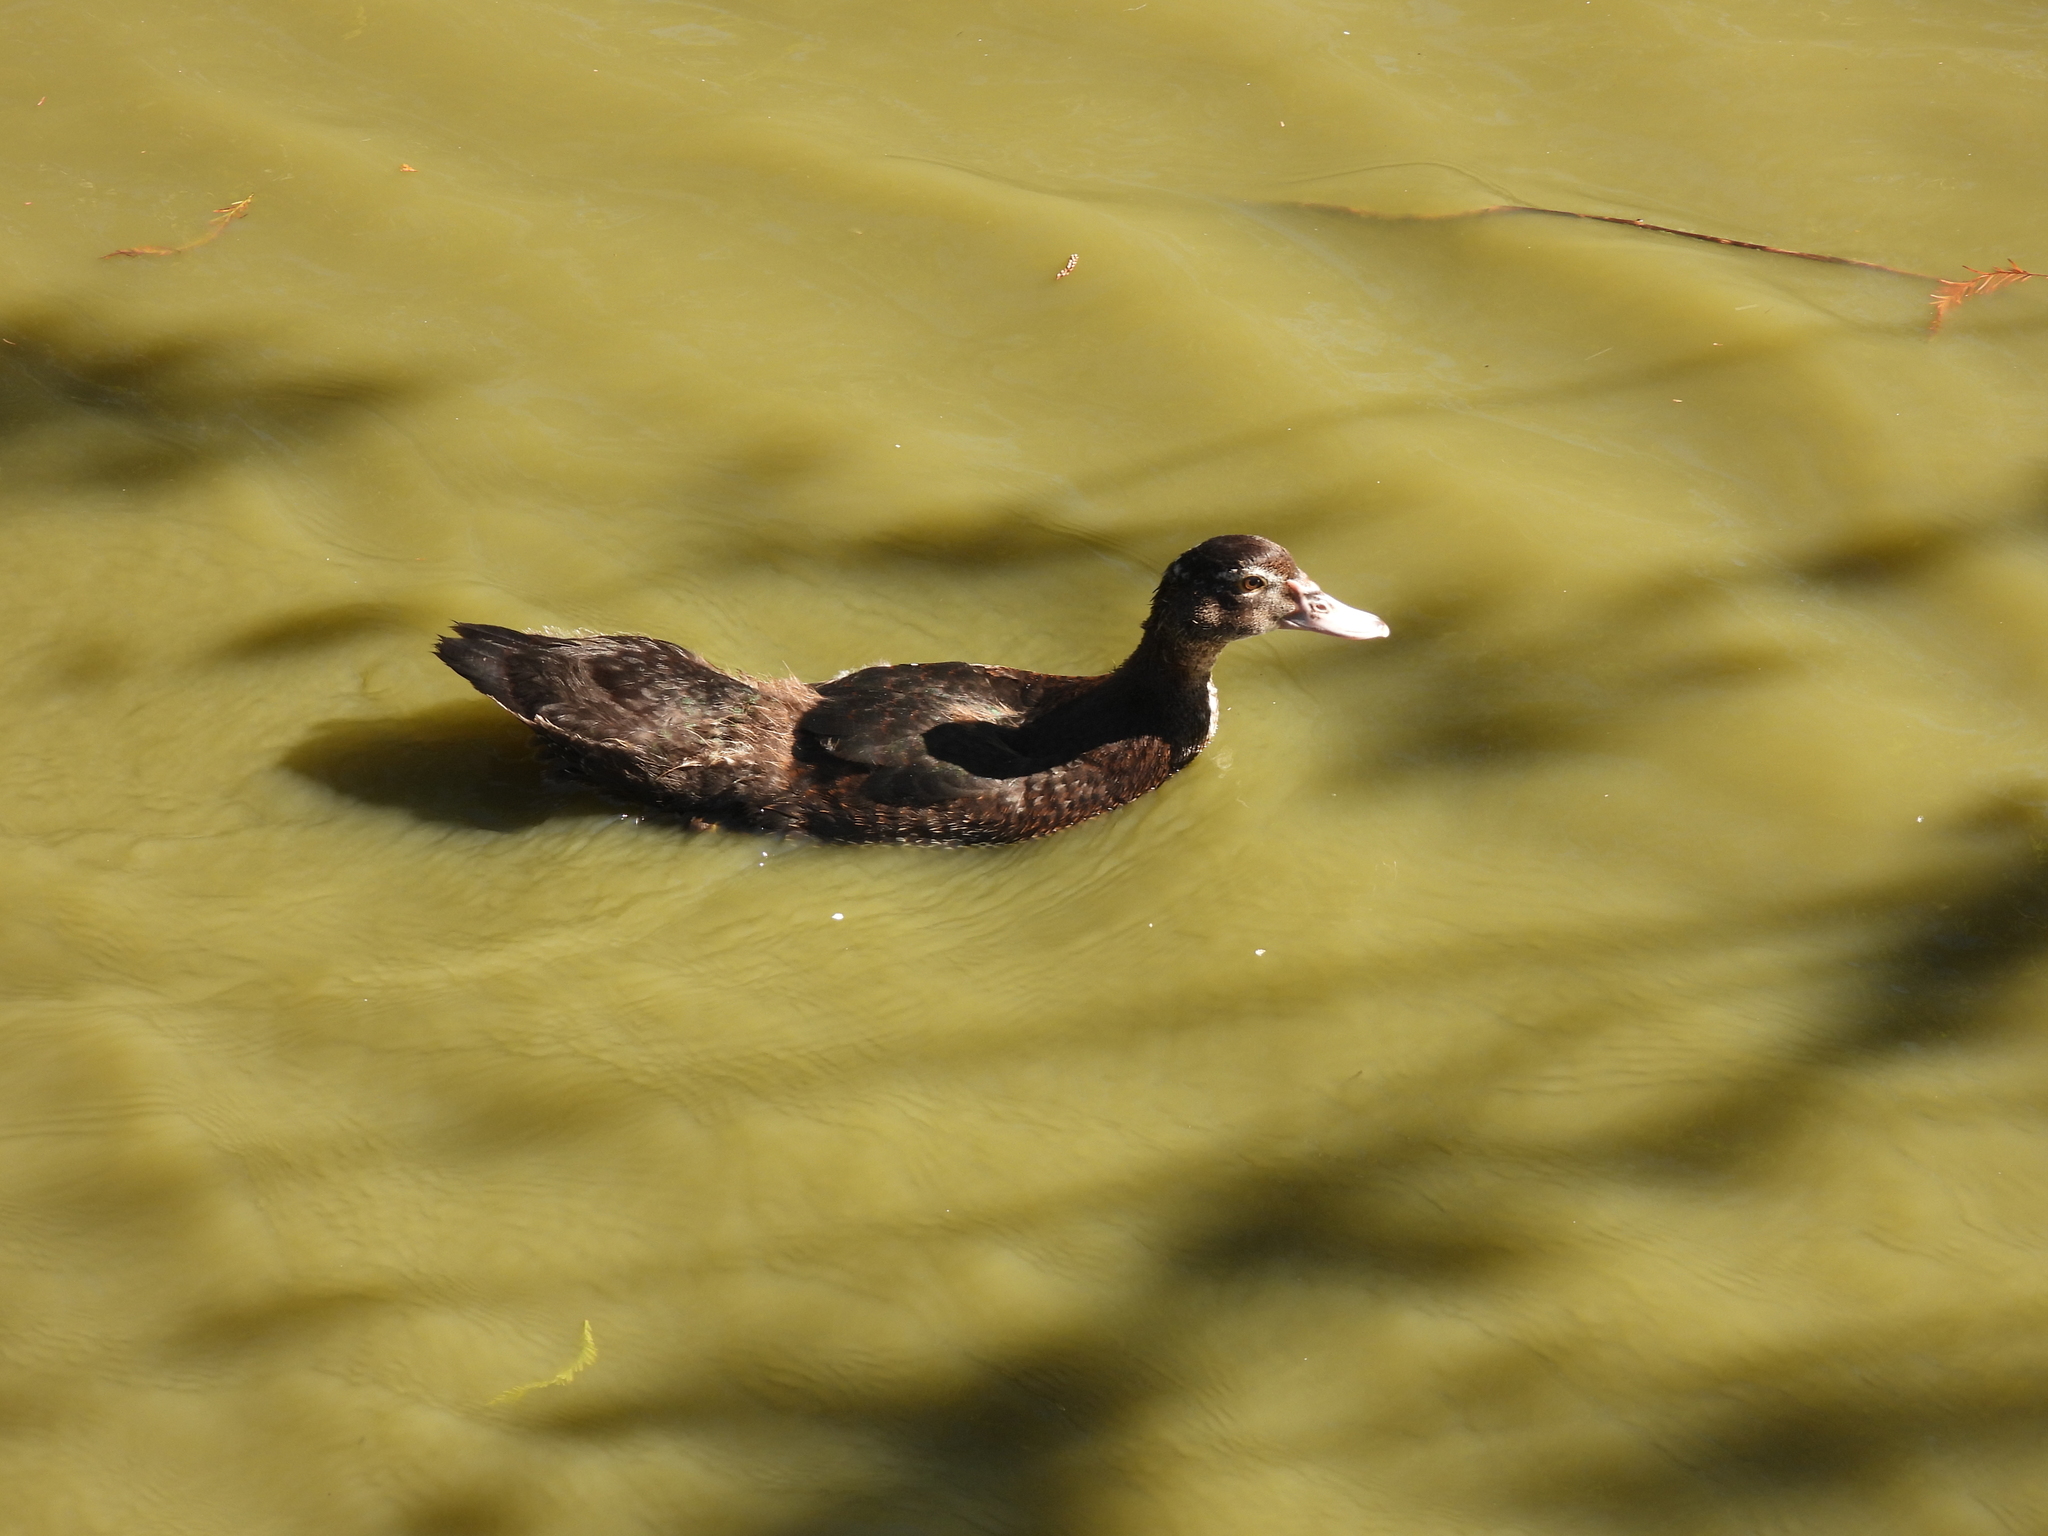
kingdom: Animalia
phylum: Chordata
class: Aves
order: Anseriformes
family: Anatidae
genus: Cairina
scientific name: Cairina moschata
